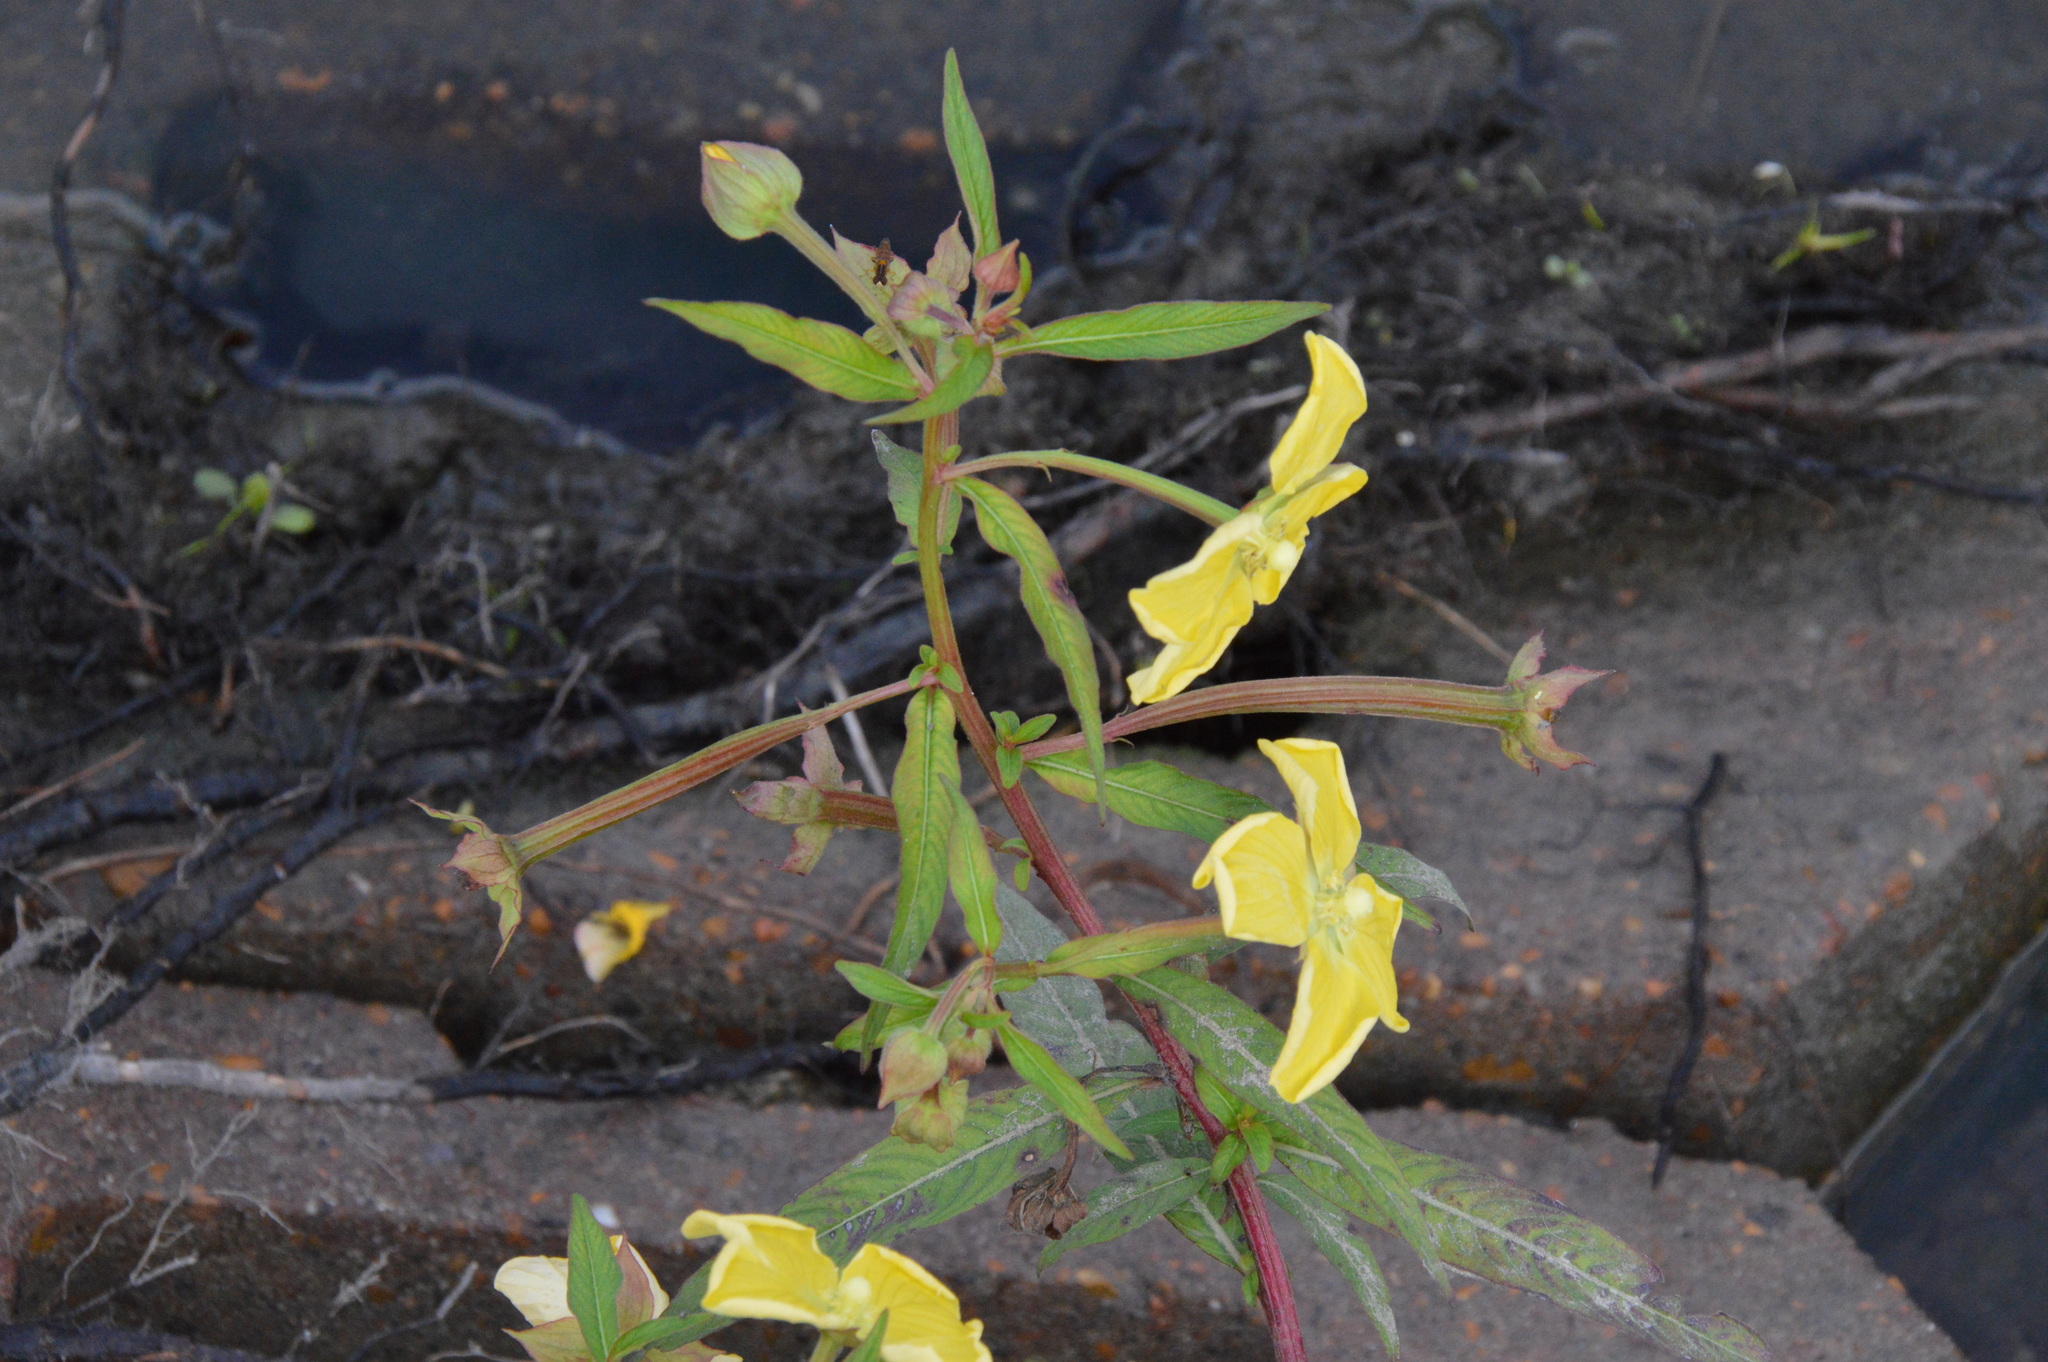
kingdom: Plantae
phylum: Tracheophyta
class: Magnoliopsida
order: Myrtales
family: Onagraceae
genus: Ludwigia
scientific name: Ludwigia octovalvis
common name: Water-primrose
